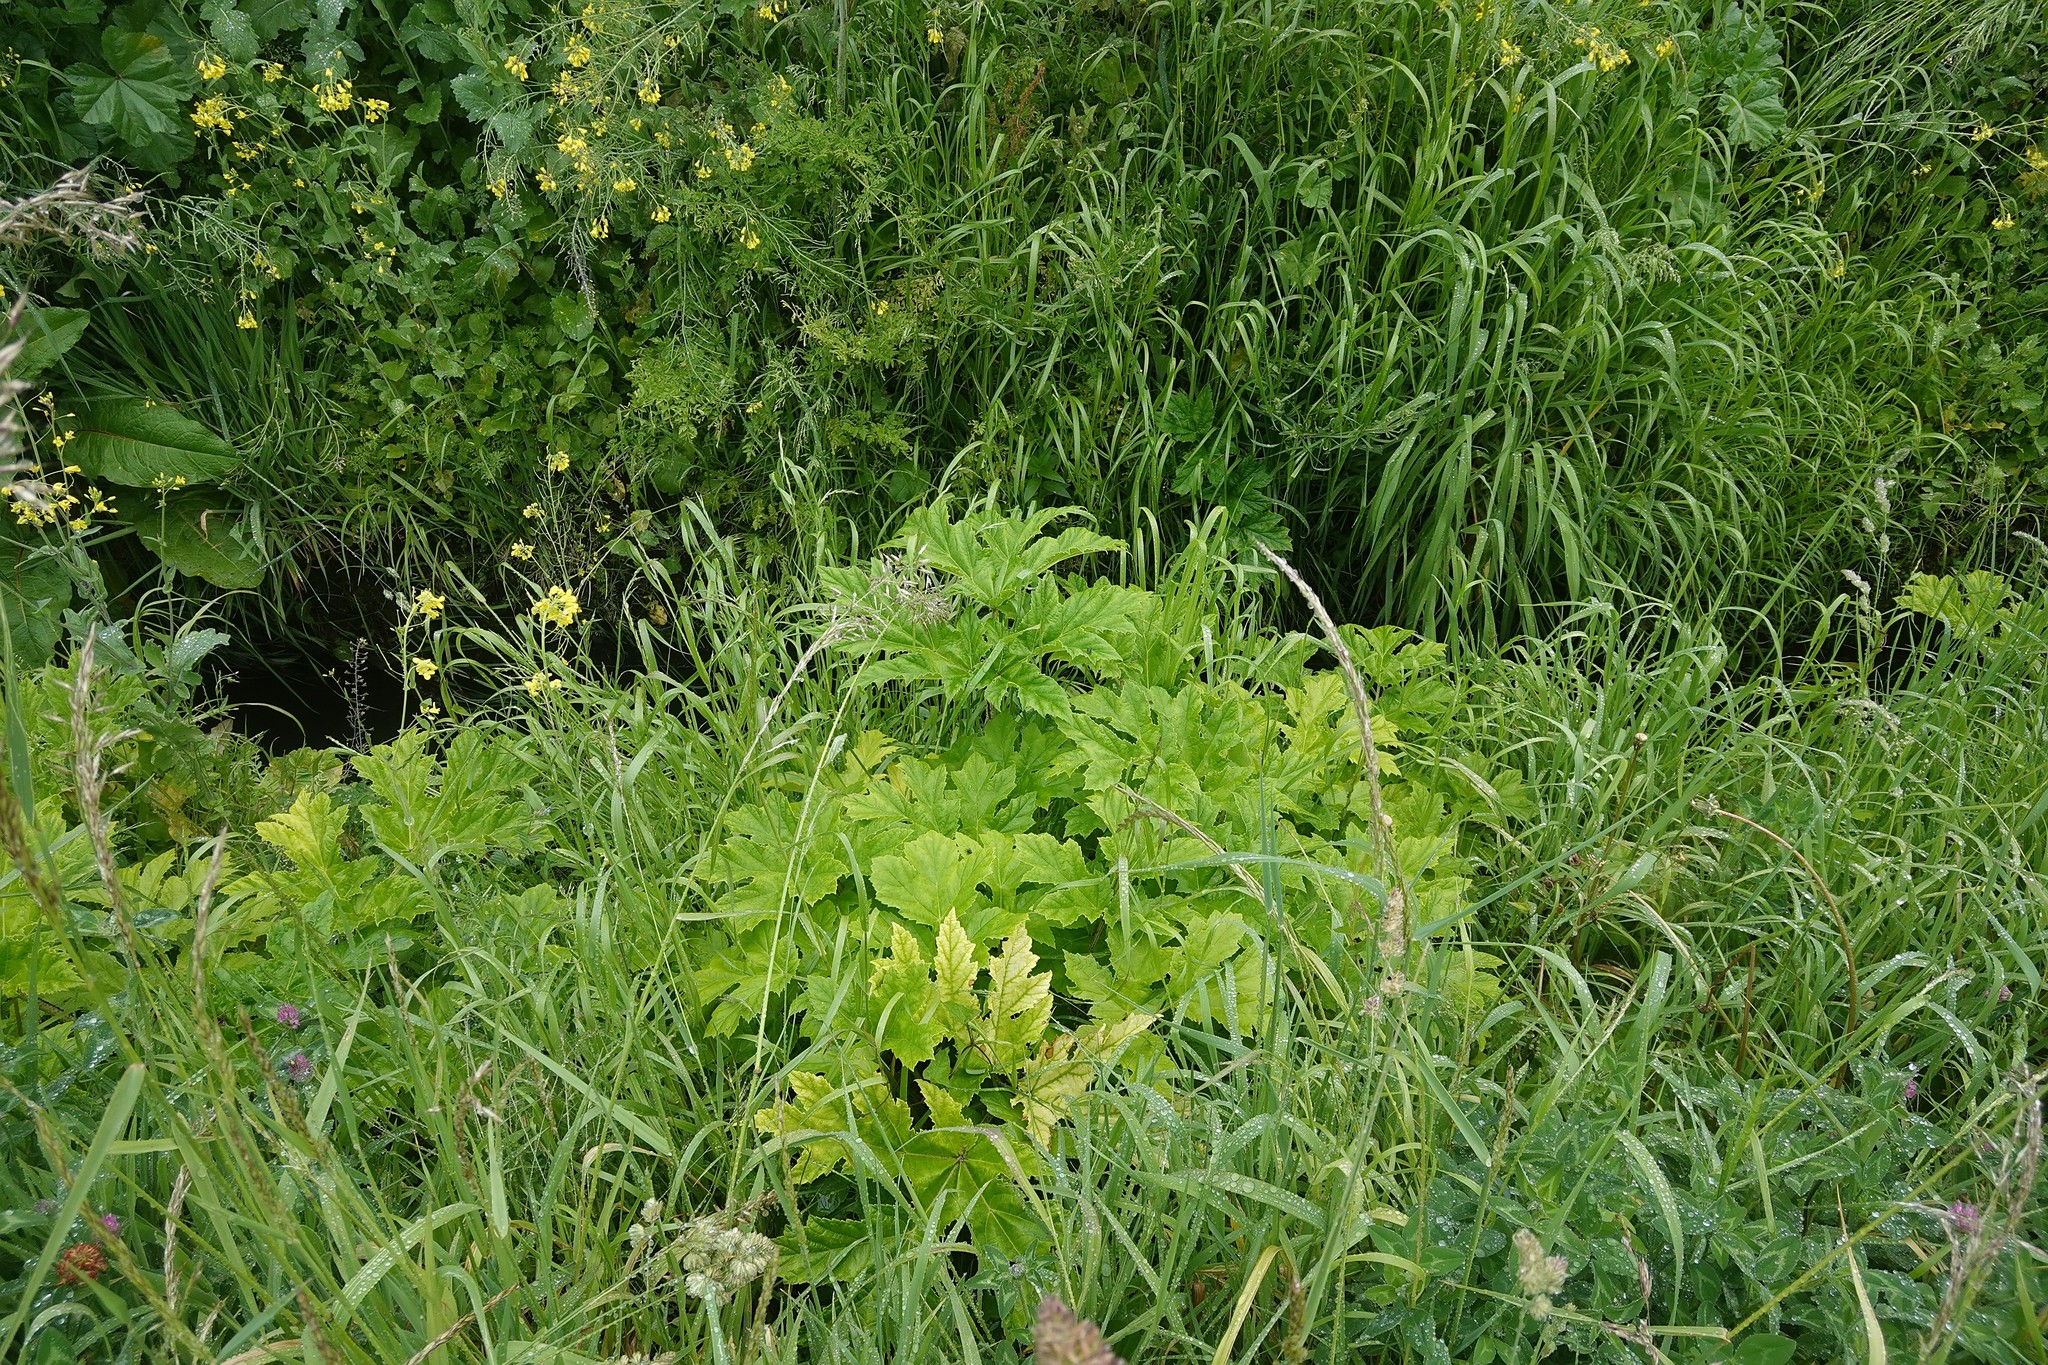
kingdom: Plantae
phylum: Tracheophyta
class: Magnoliopsida
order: Apiales
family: Apiaceae
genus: Heracleum
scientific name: Heracleum mantegazzianum
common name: Giant hogweed
